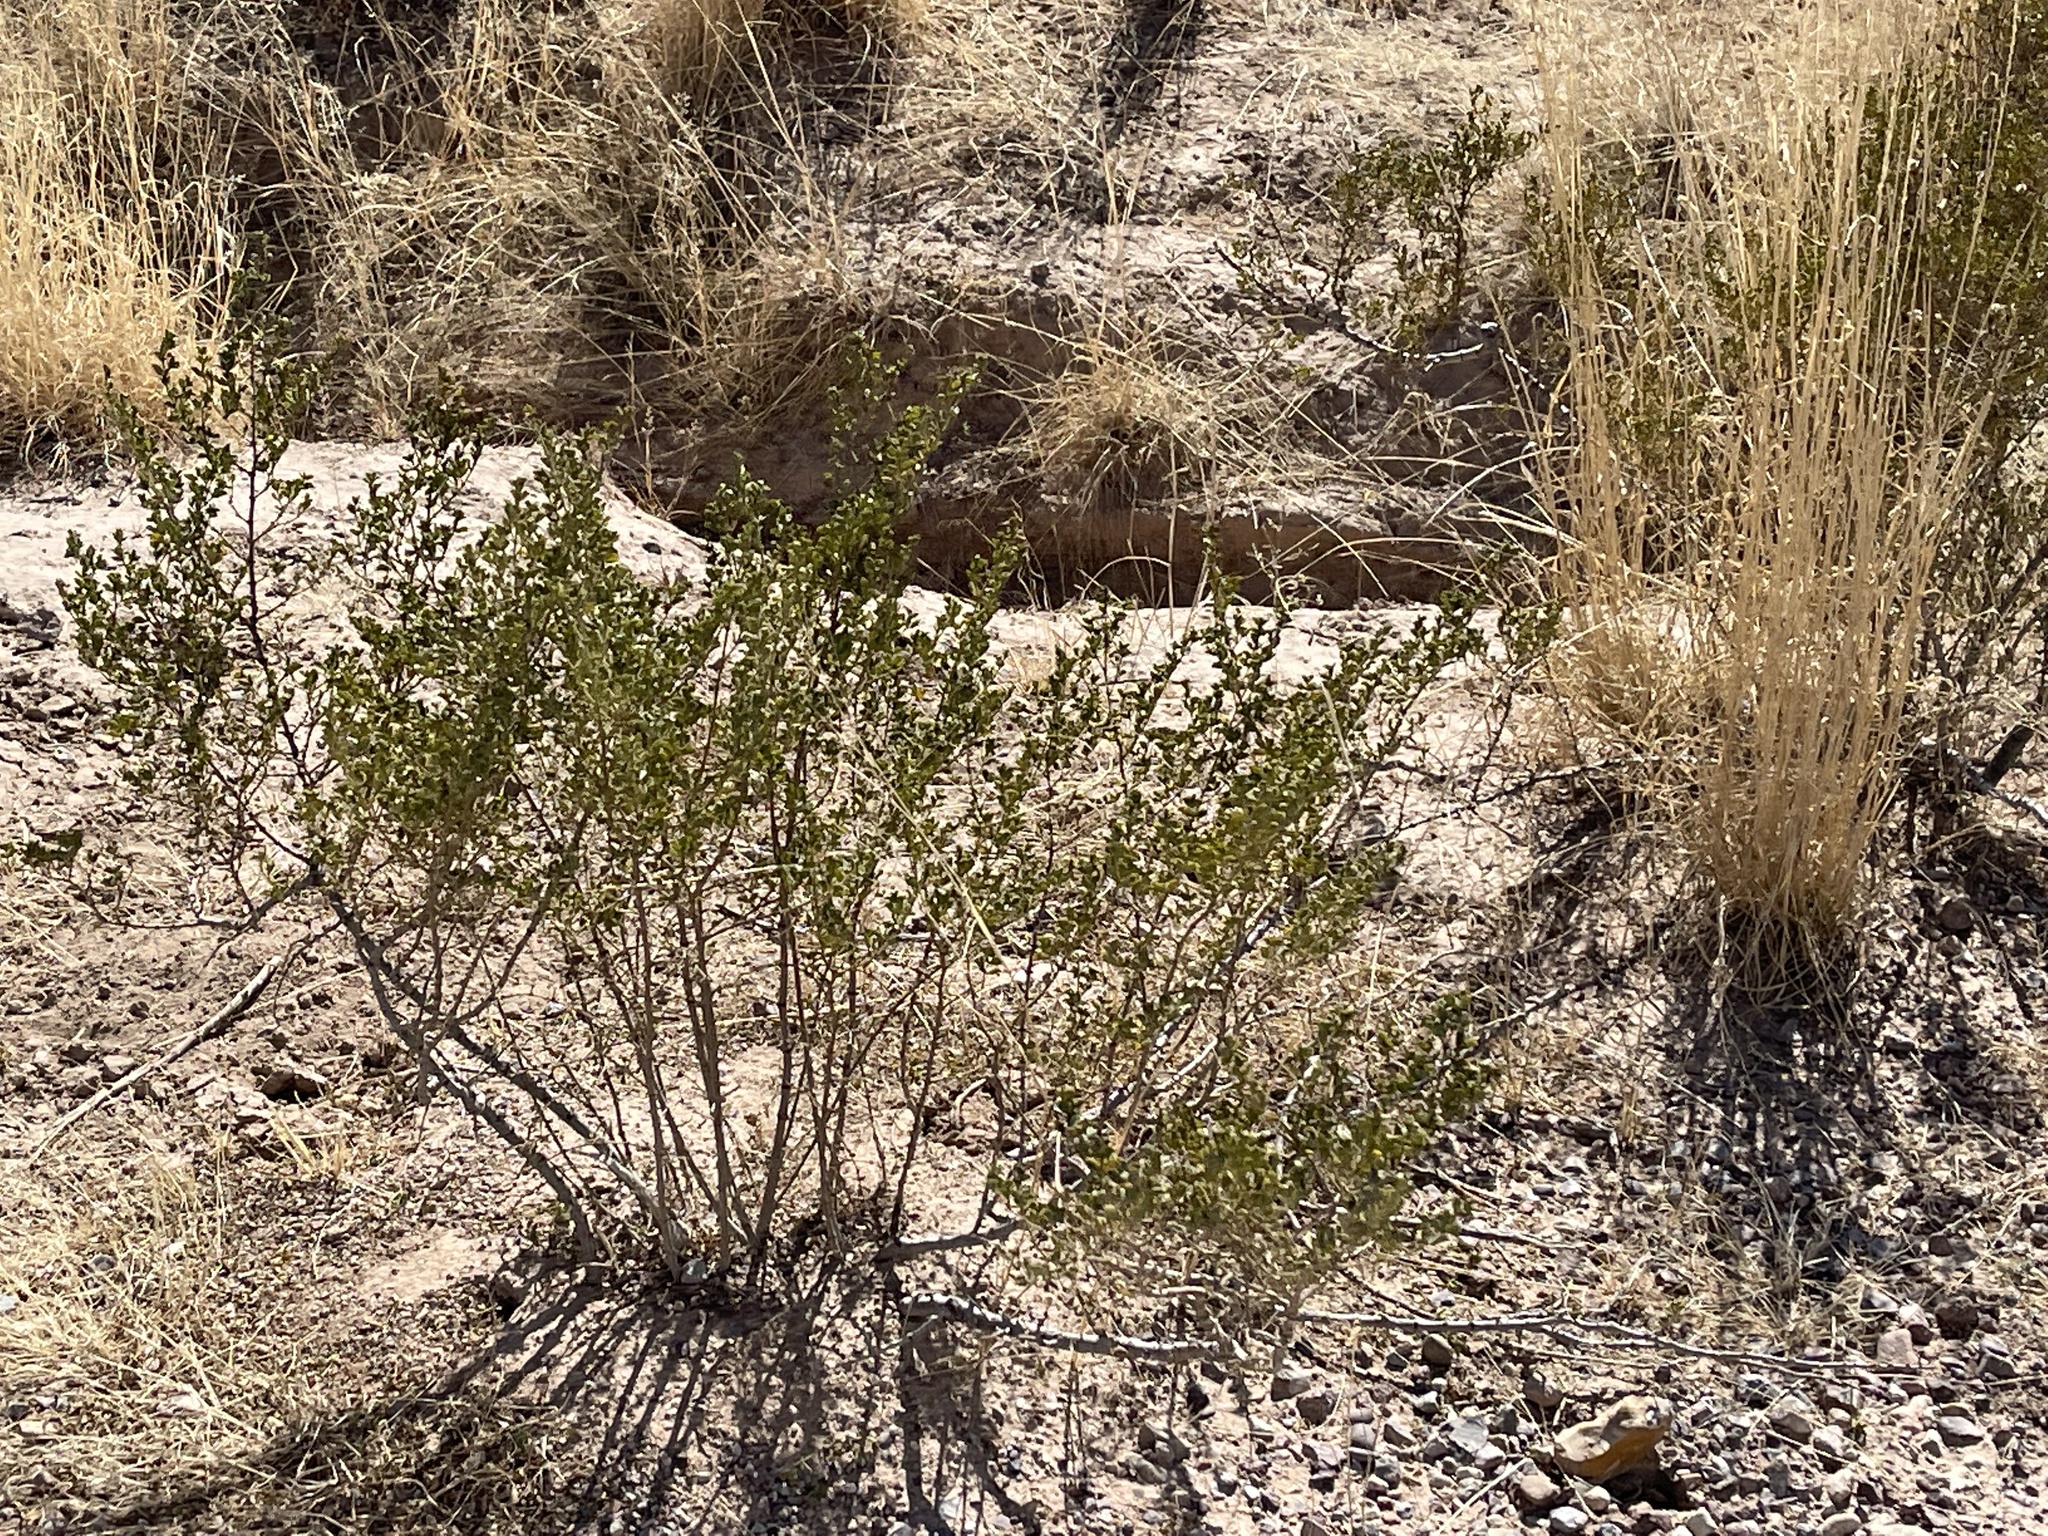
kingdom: Plantae
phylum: Tracheophyta
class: Magnoliopsida
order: Zygophyllales
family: Zygophyllaceae
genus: Larrea
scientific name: Larrea tridentata
